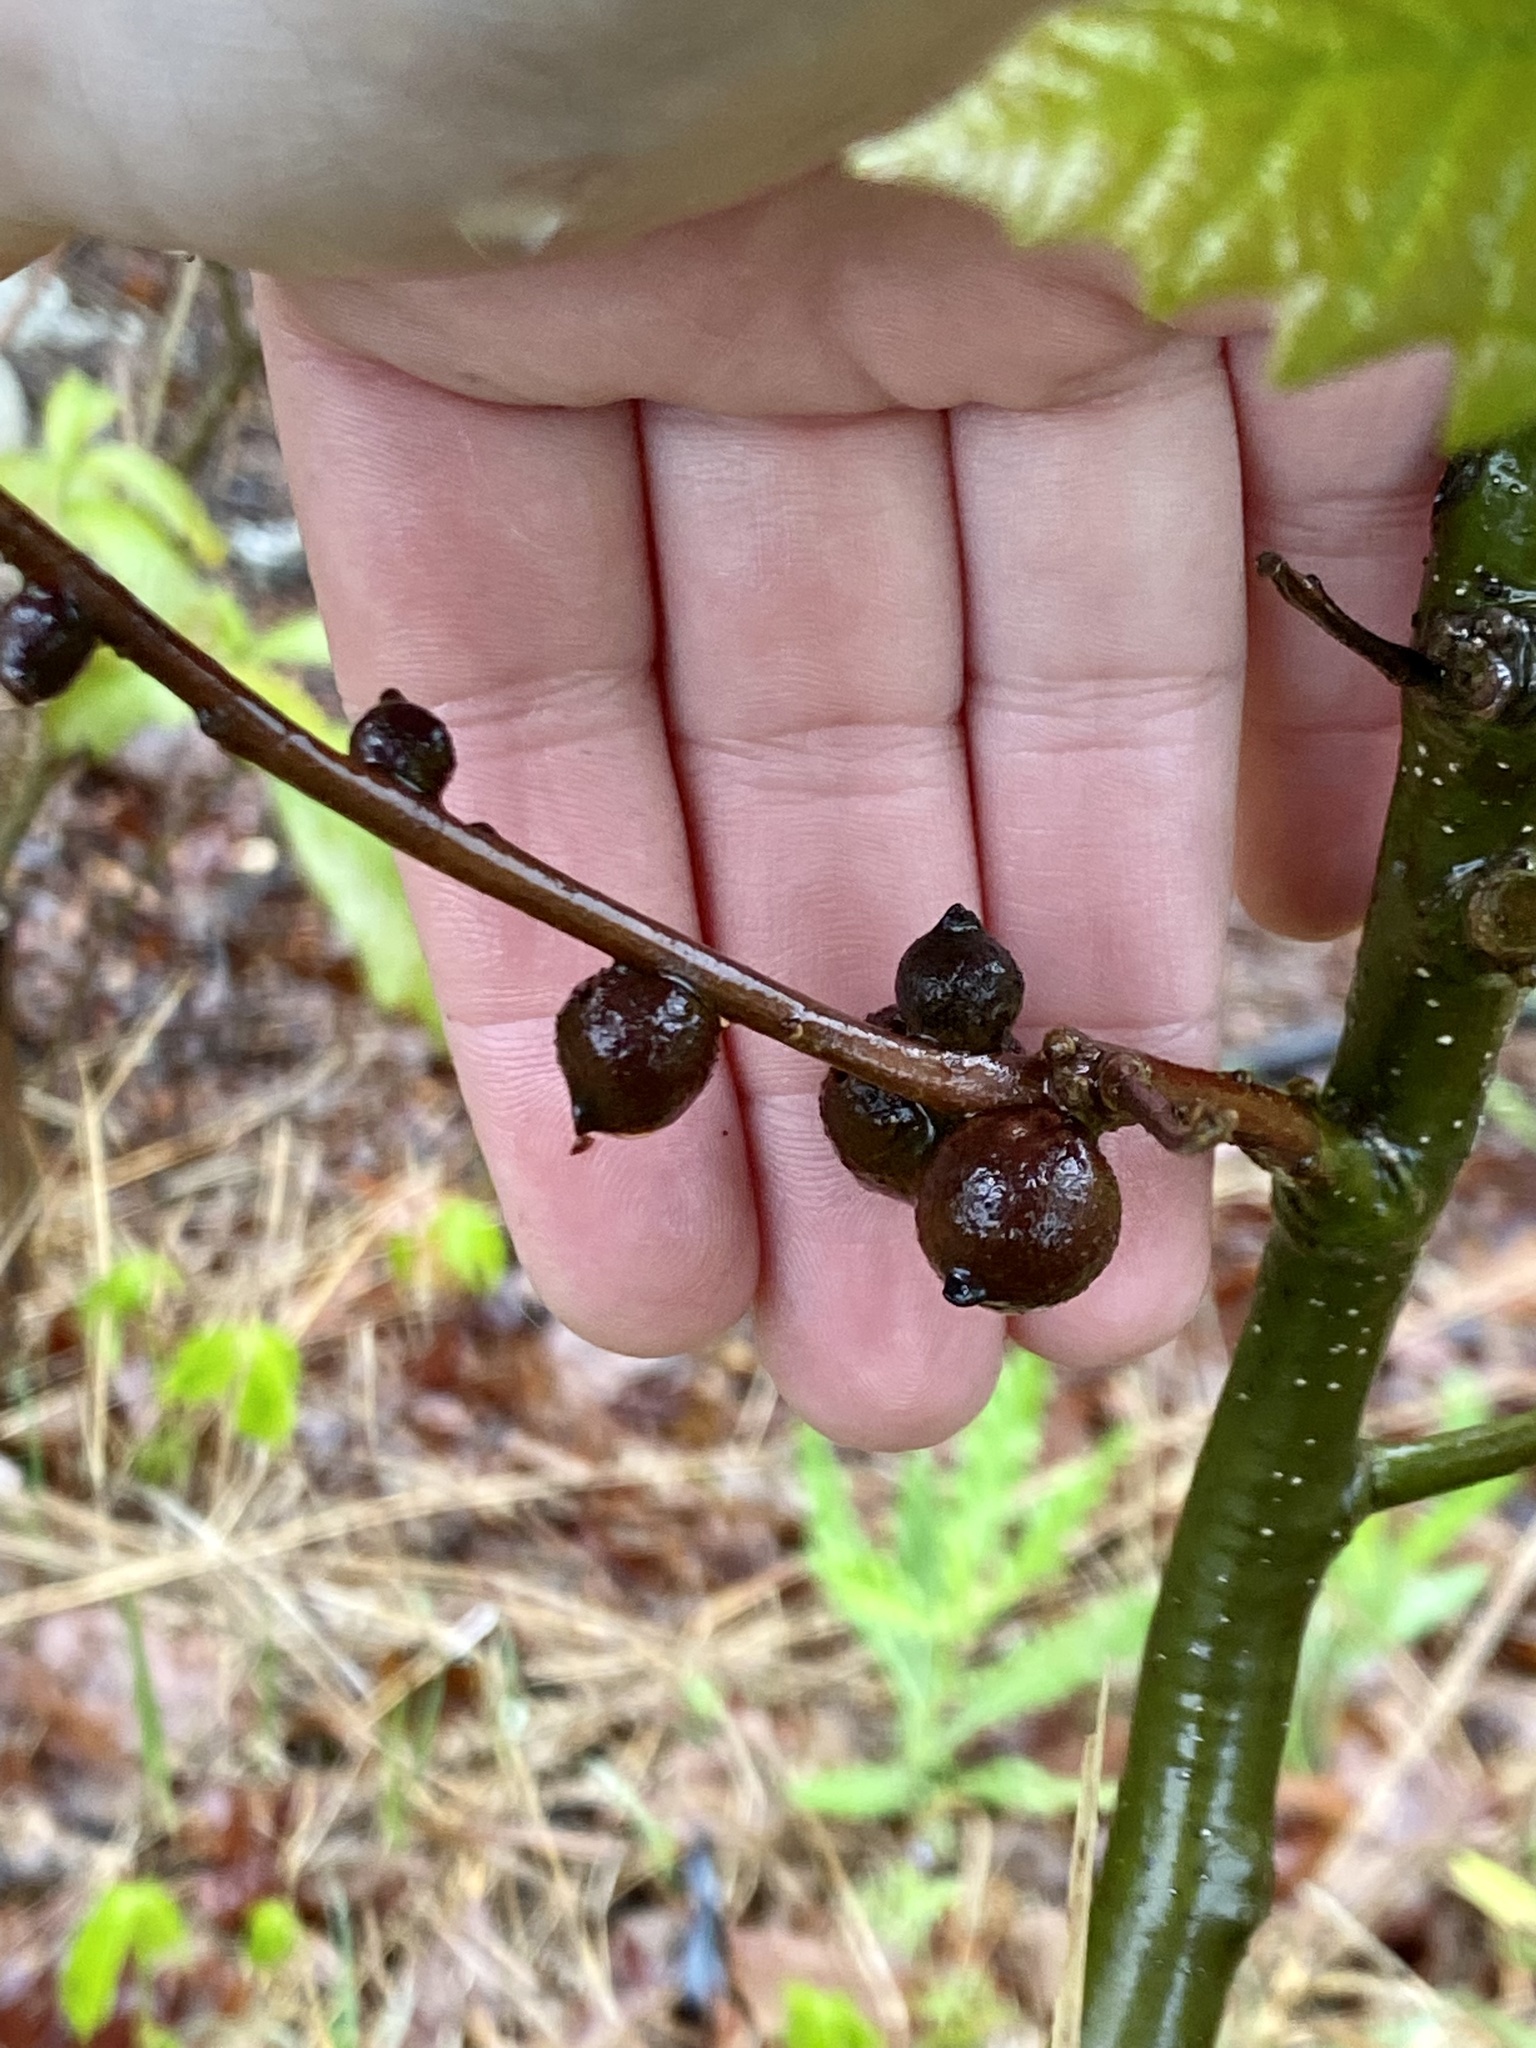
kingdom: Animalia
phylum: Arthropoda
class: Insecta
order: Hymenoptera
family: Cynipidae
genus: Disholcaspis
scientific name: Disholcaspis
